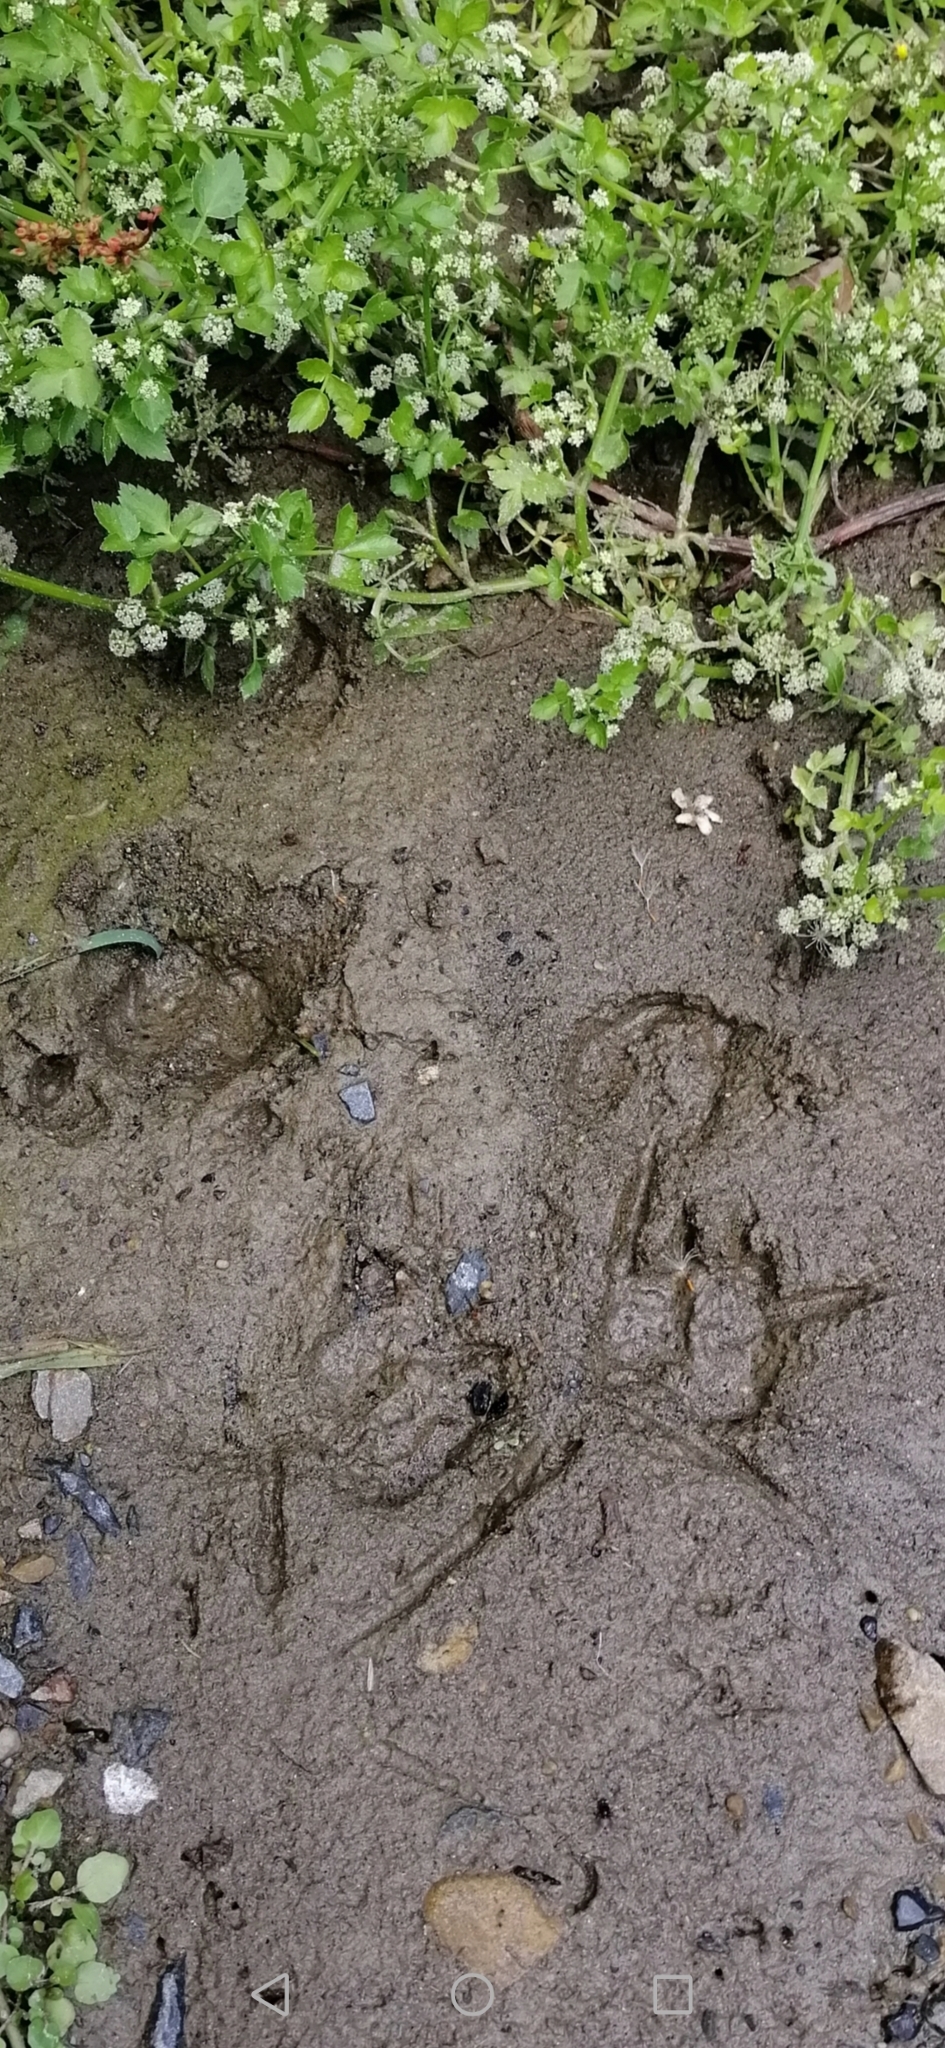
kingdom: Animalia
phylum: Chordata
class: Mammalia
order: Artiodactyla
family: Bovidae
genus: Capra
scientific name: Capra hircus
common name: Domestic goat
